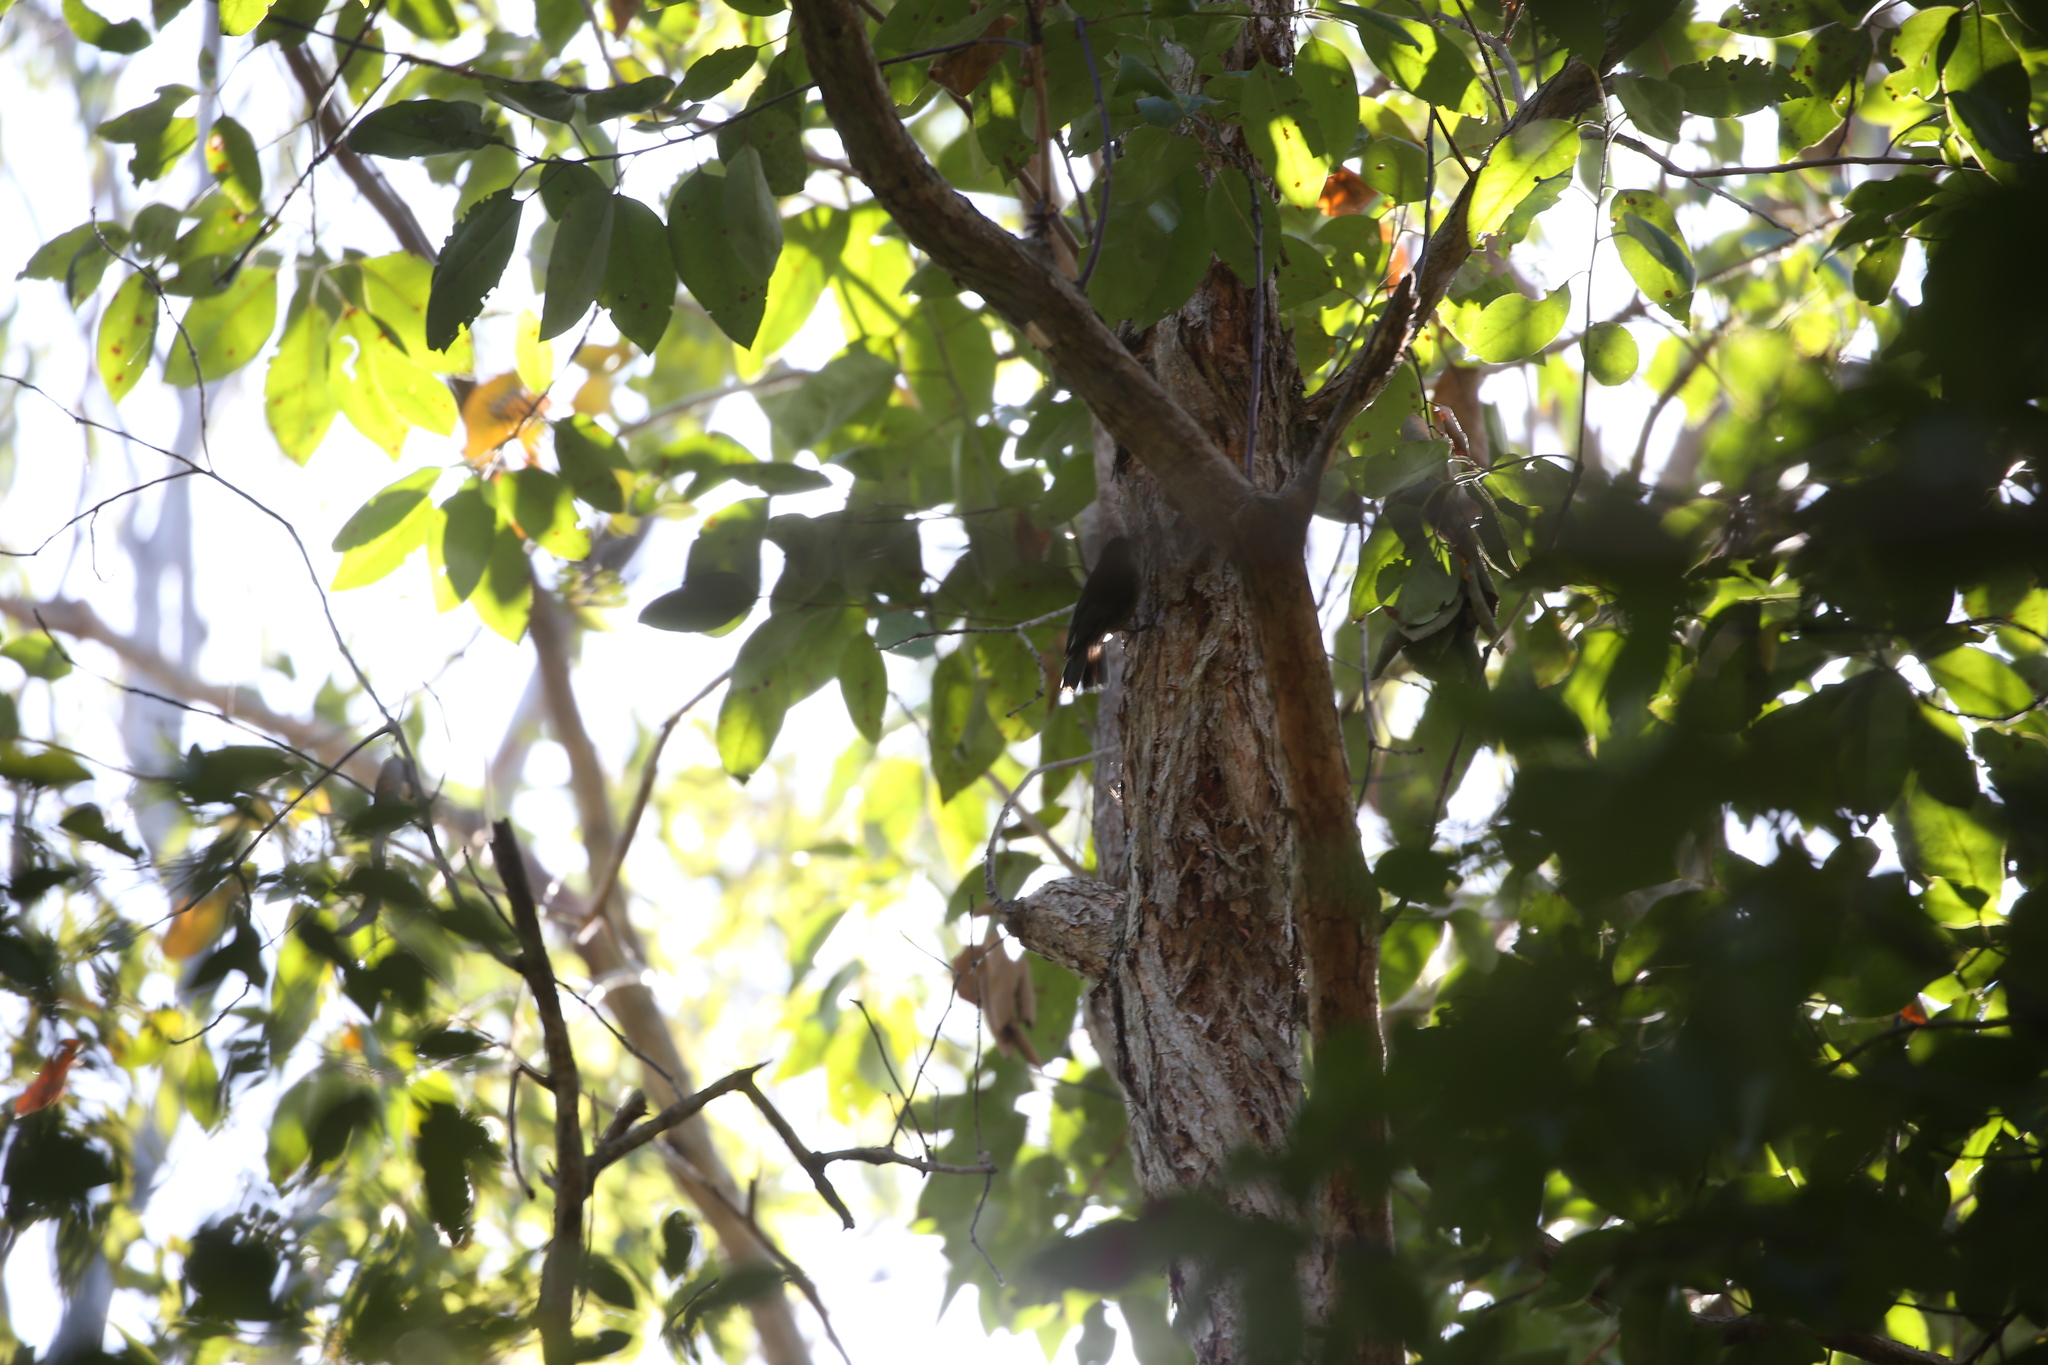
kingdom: Animalia
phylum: Chordata
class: Aves
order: Passeriformes
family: Climacteridae
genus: Cormobates
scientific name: Cormobates leucophaea
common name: White-throated treecreeper
